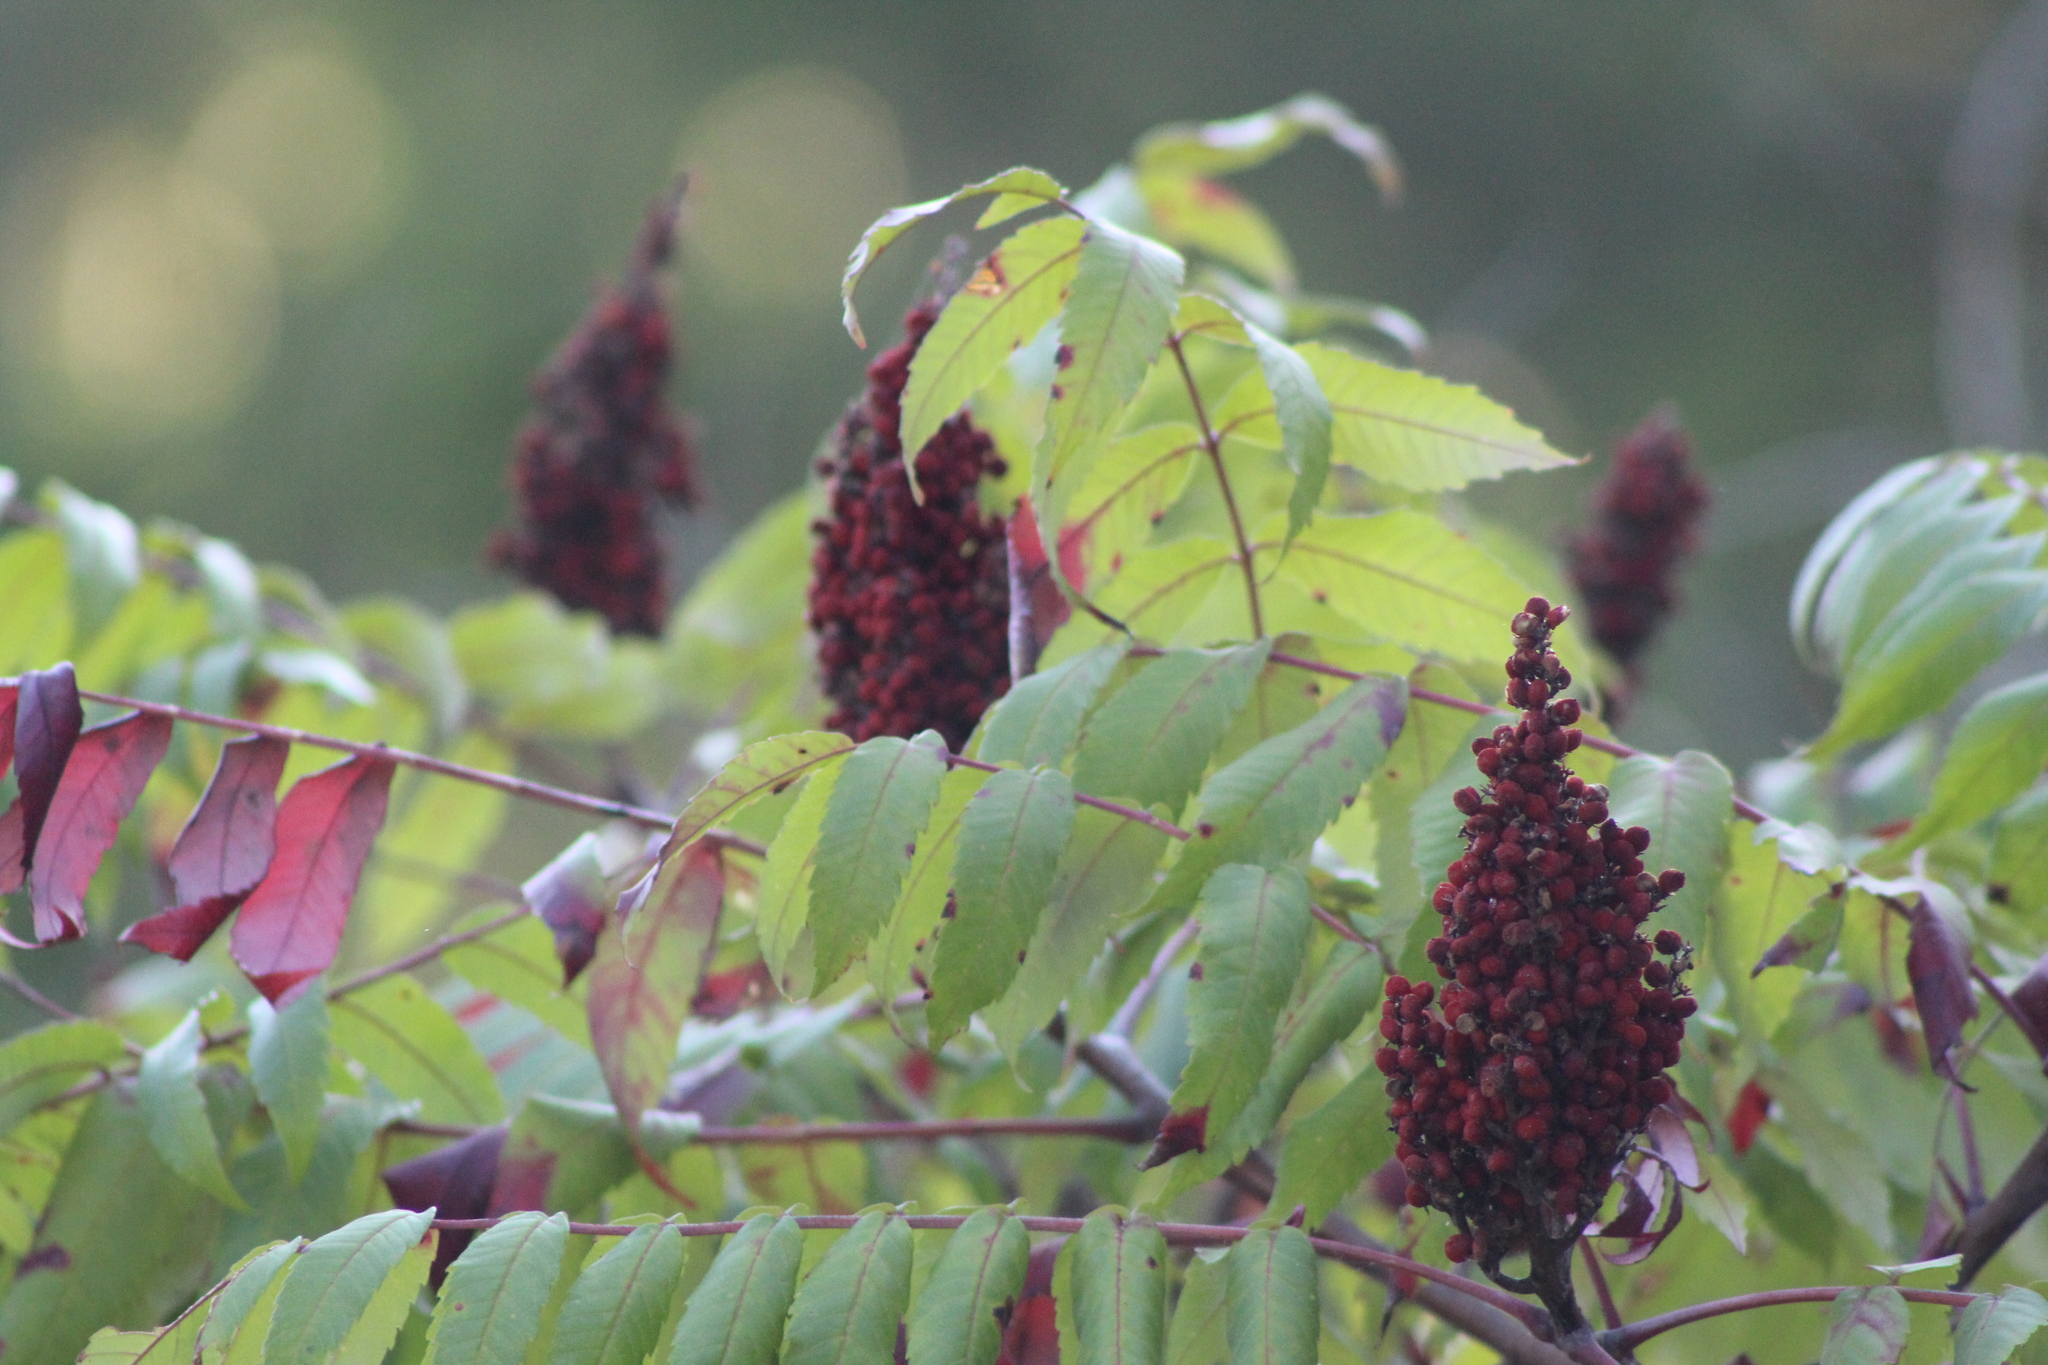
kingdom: Plantae
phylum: Tracheophyta
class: Magnoliopsida
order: Sapindales
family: Anacardiaceae
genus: Rhus
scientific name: Rhus glabra
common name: Scarlet sumac
